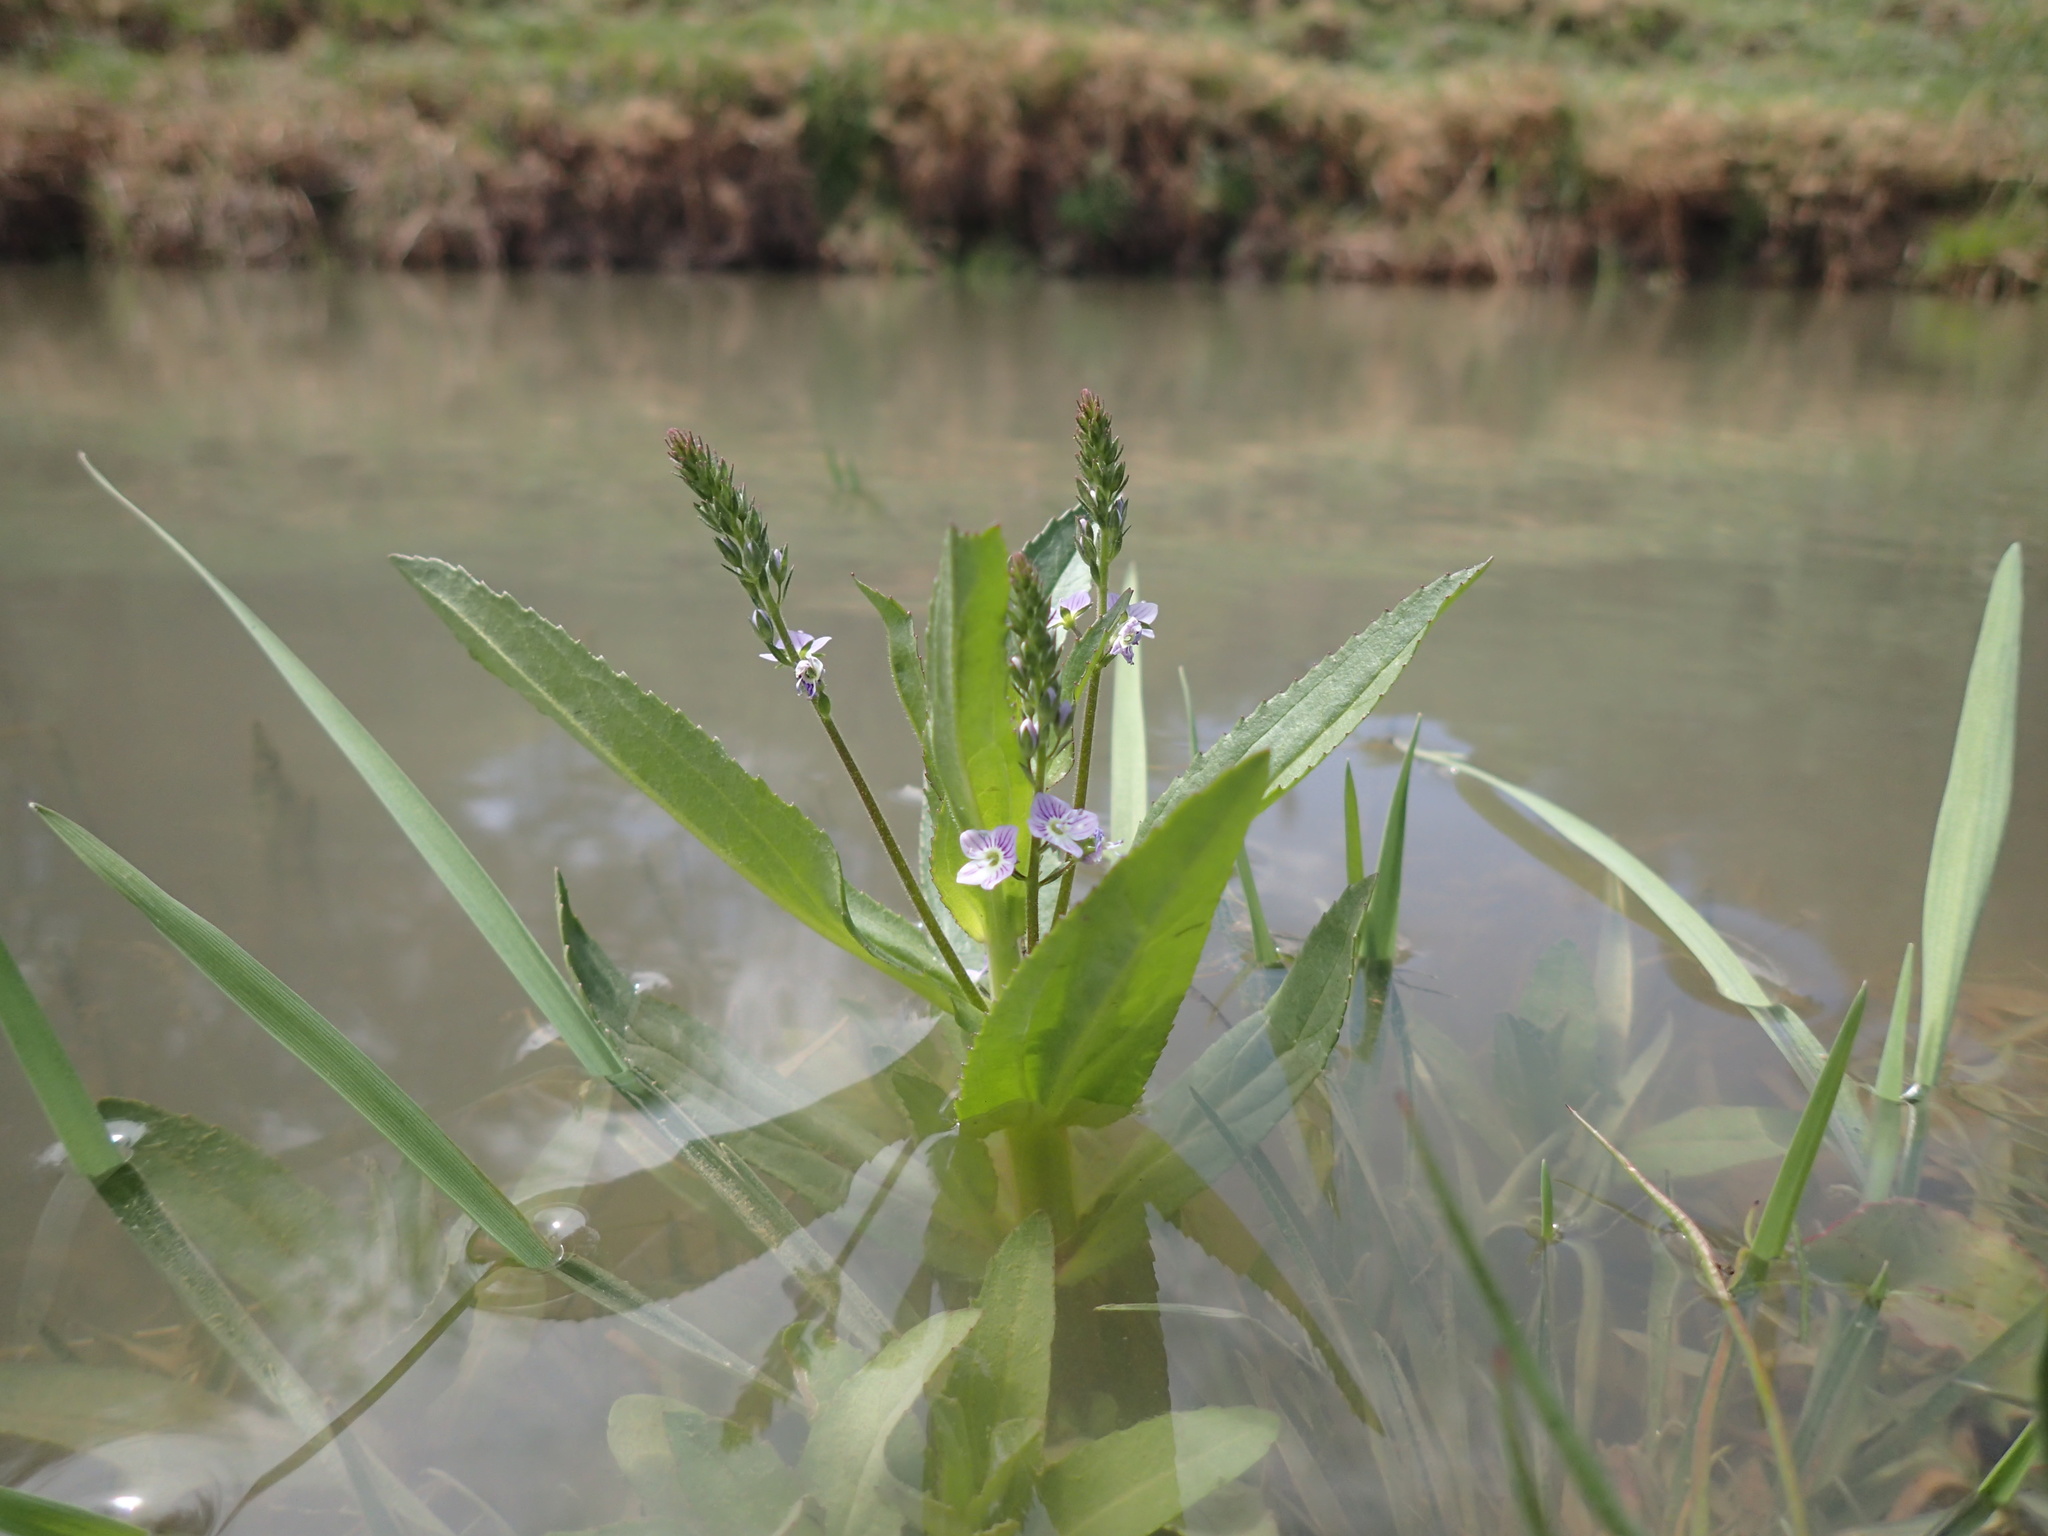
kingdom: Plantae
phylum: Tracheophyta
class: Magnoliopsida
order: Lamiales
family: Plantaginaceae
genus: Veronica
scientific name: Veronica anagallis-aquatica
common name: Water speedwell
